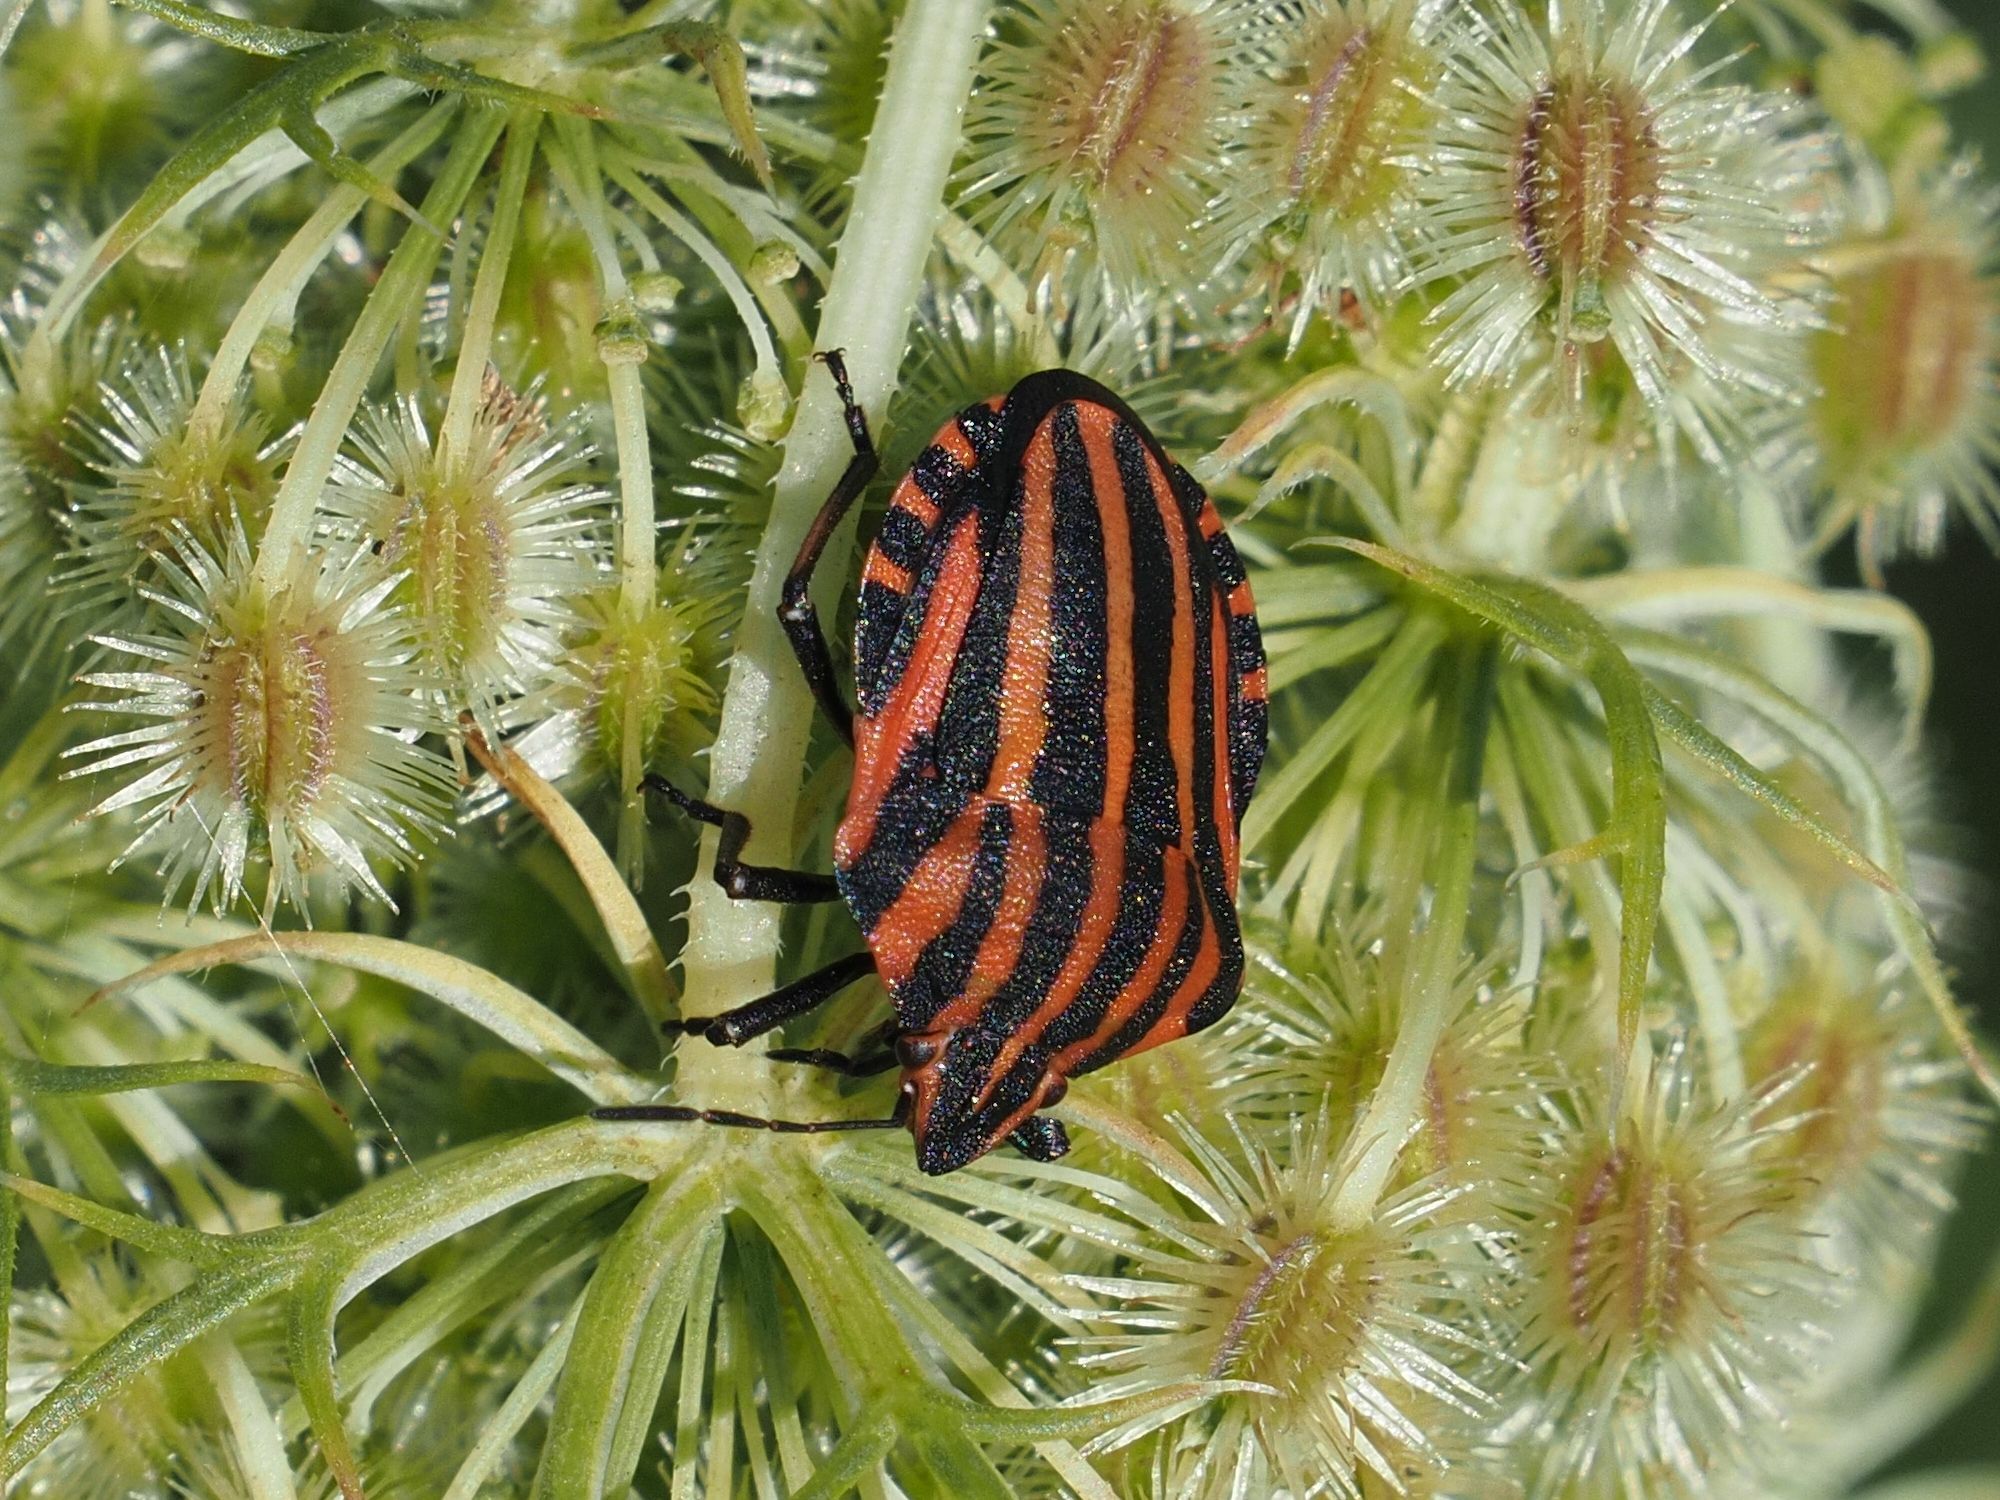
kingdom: Animalia
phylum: Arthropoda
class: Insecta
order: Hemiptera
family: Pentatomidae
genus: Graphosoma
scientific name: Graphosoma italicum
